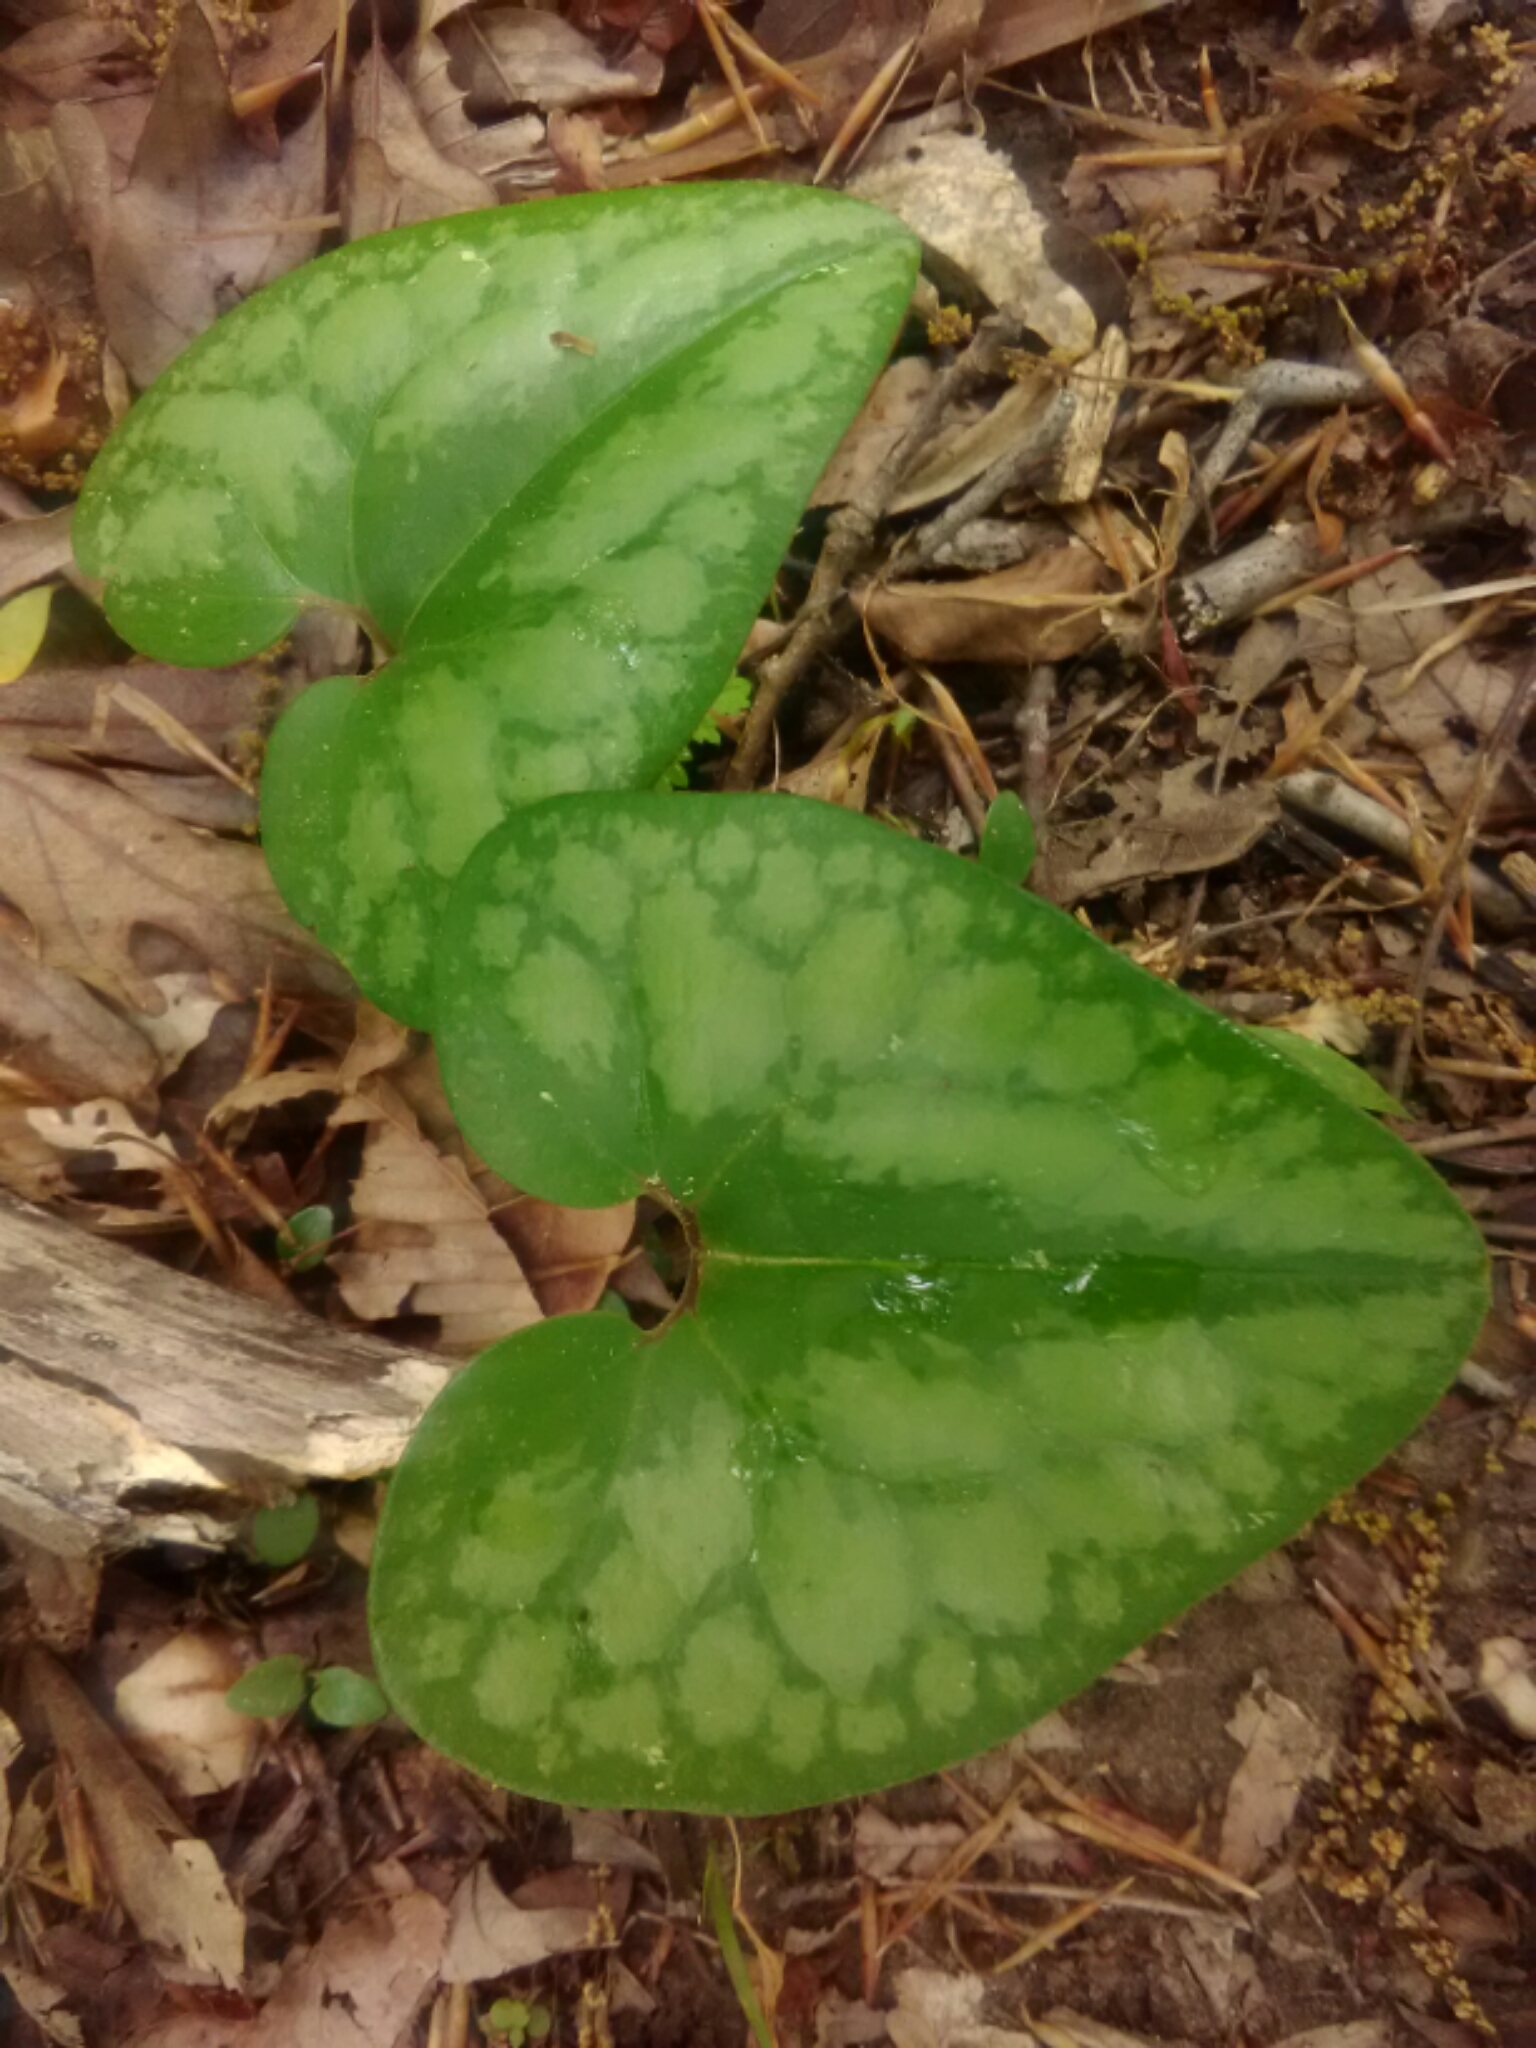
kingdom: Plantae
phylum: Tracheophyta
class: Magnoliopsida
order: Piperales
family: Aristolochiaceae
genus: Hexastylis
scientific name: Hexastylis arifolia
